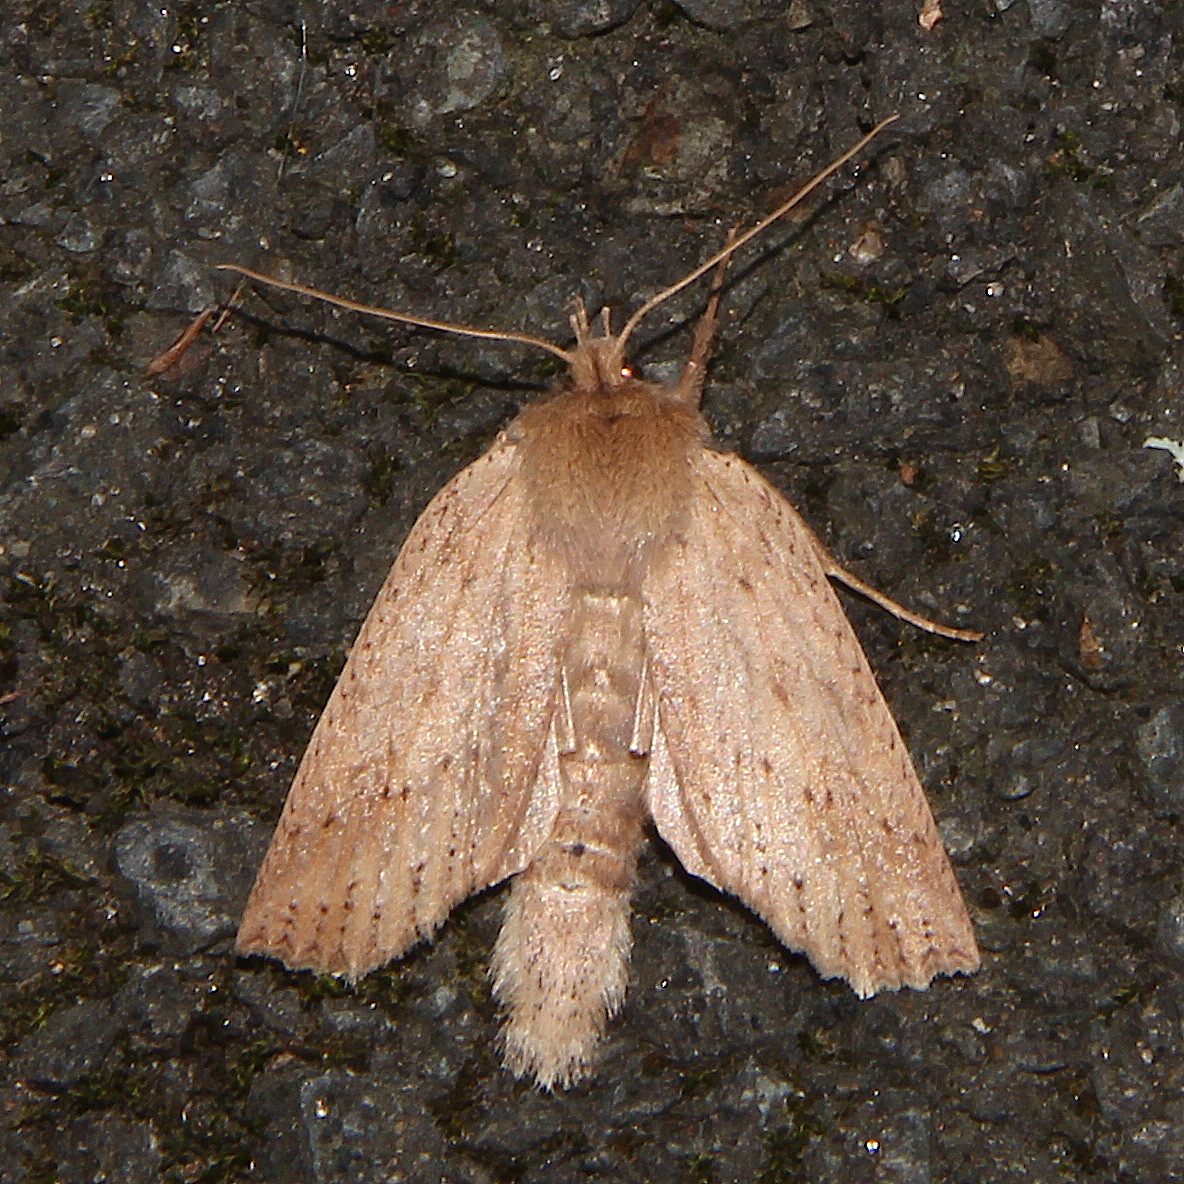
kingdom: Animalia
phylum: Arthropoda
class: Insecta
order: Lepidoptera
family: Geometridae
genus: Declana
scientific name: Declana leptomera
